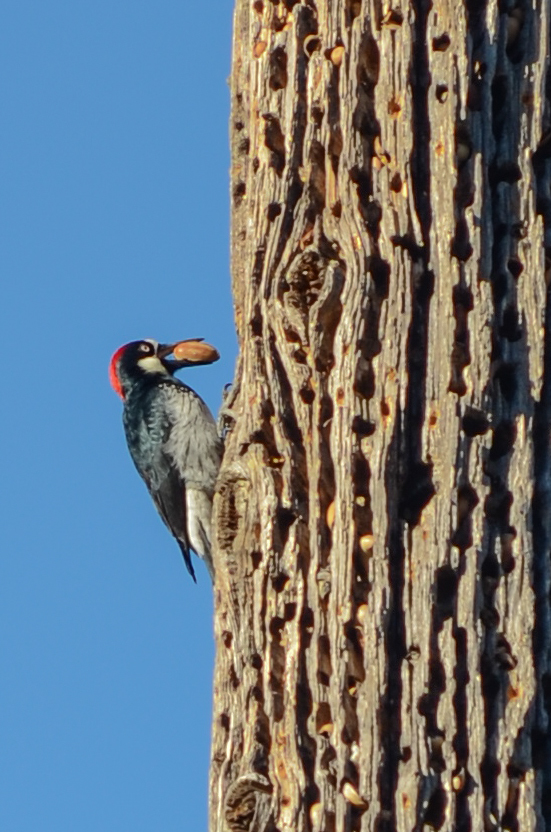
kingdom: Animalia
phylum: Chordata
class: Aves
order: Piciformes
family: Picidae
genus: Melanerpes
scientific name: Melanerpes formicivorus
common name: Acorn woodpecker
